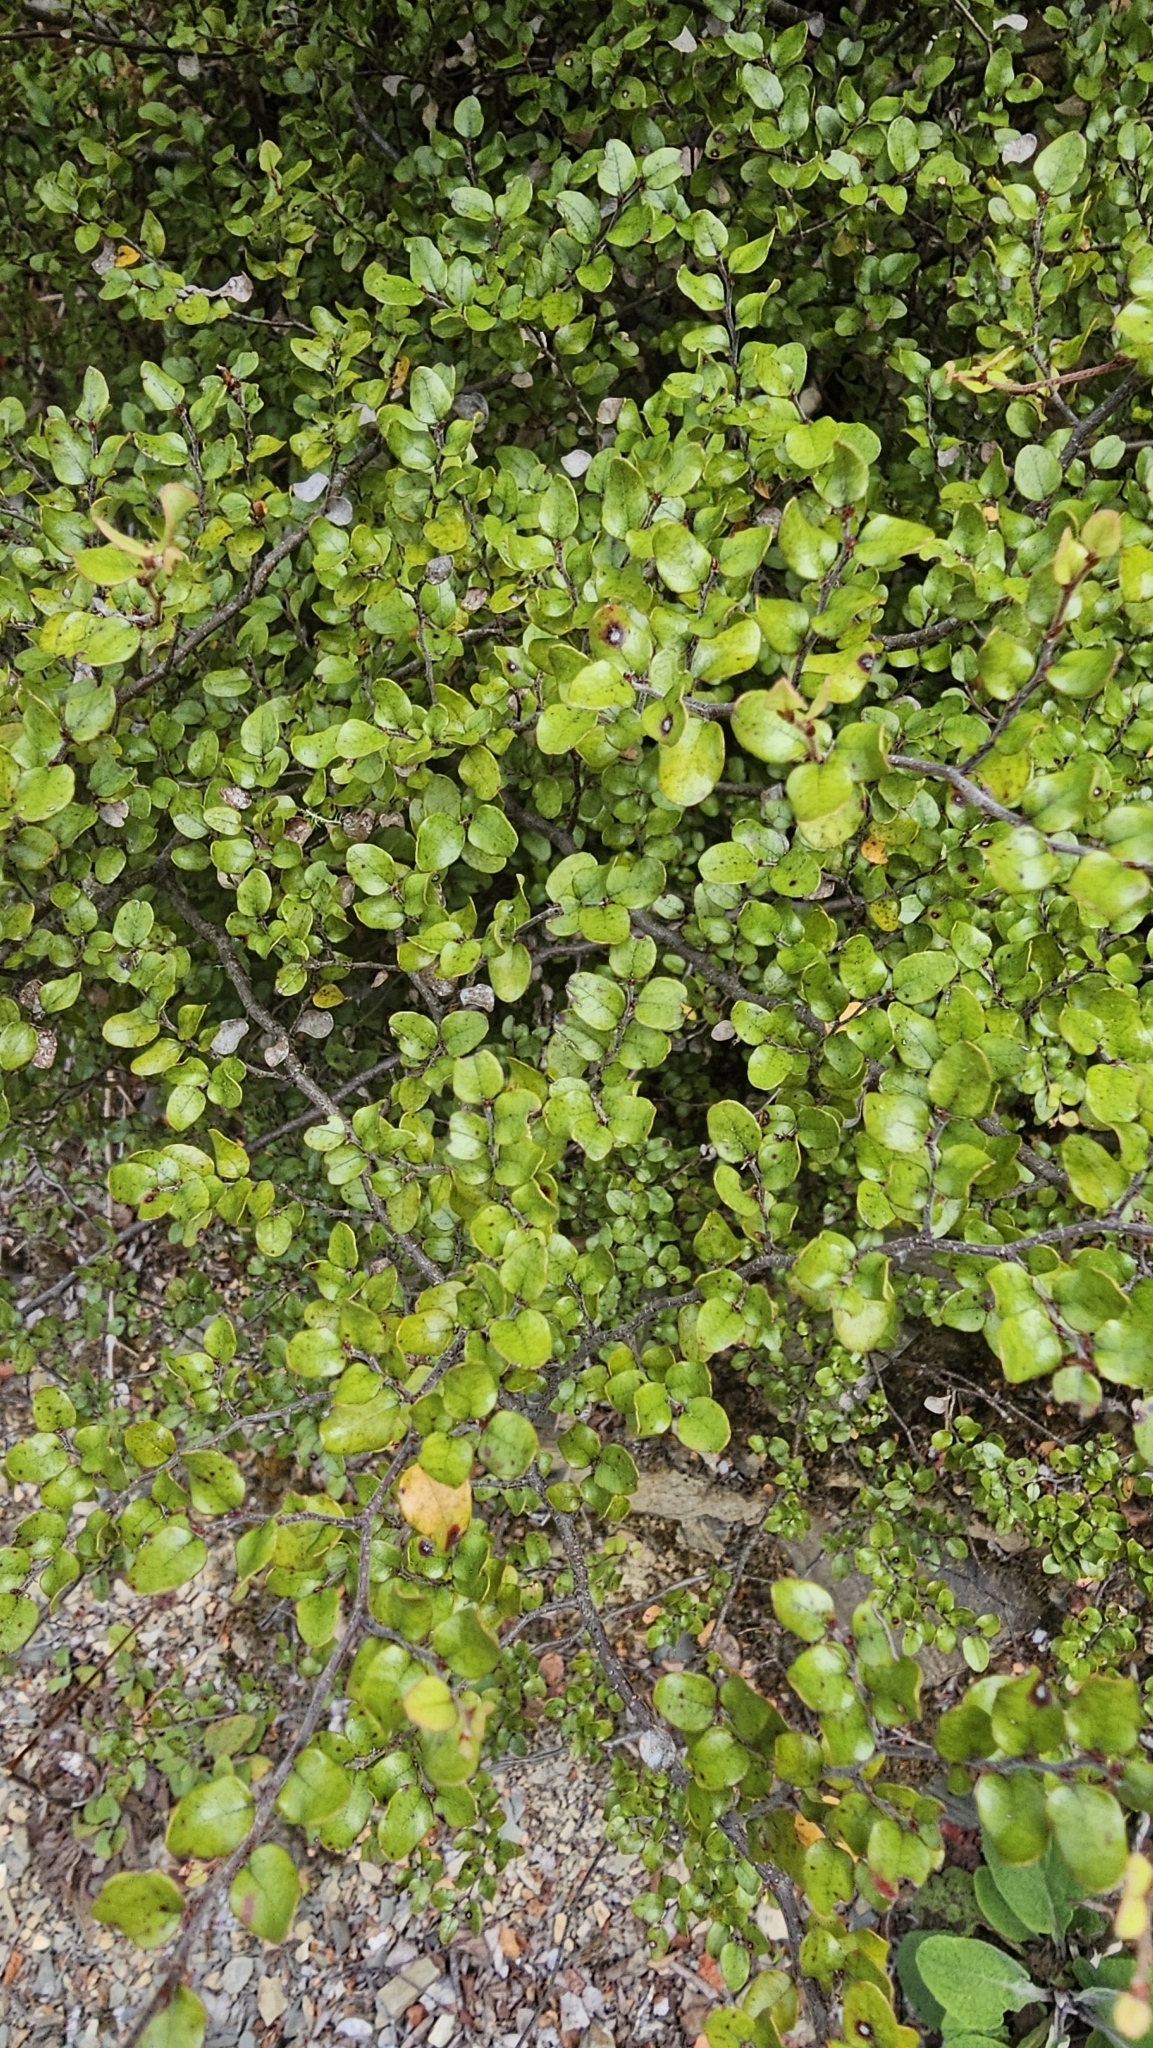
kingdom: Plantae
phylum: Tracheophyta
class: Magnoliopsida
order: Fagales
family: Nothofagaceae
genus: Nothofagus
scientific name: Nothofagus cliffortioides
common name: Mountain beech
